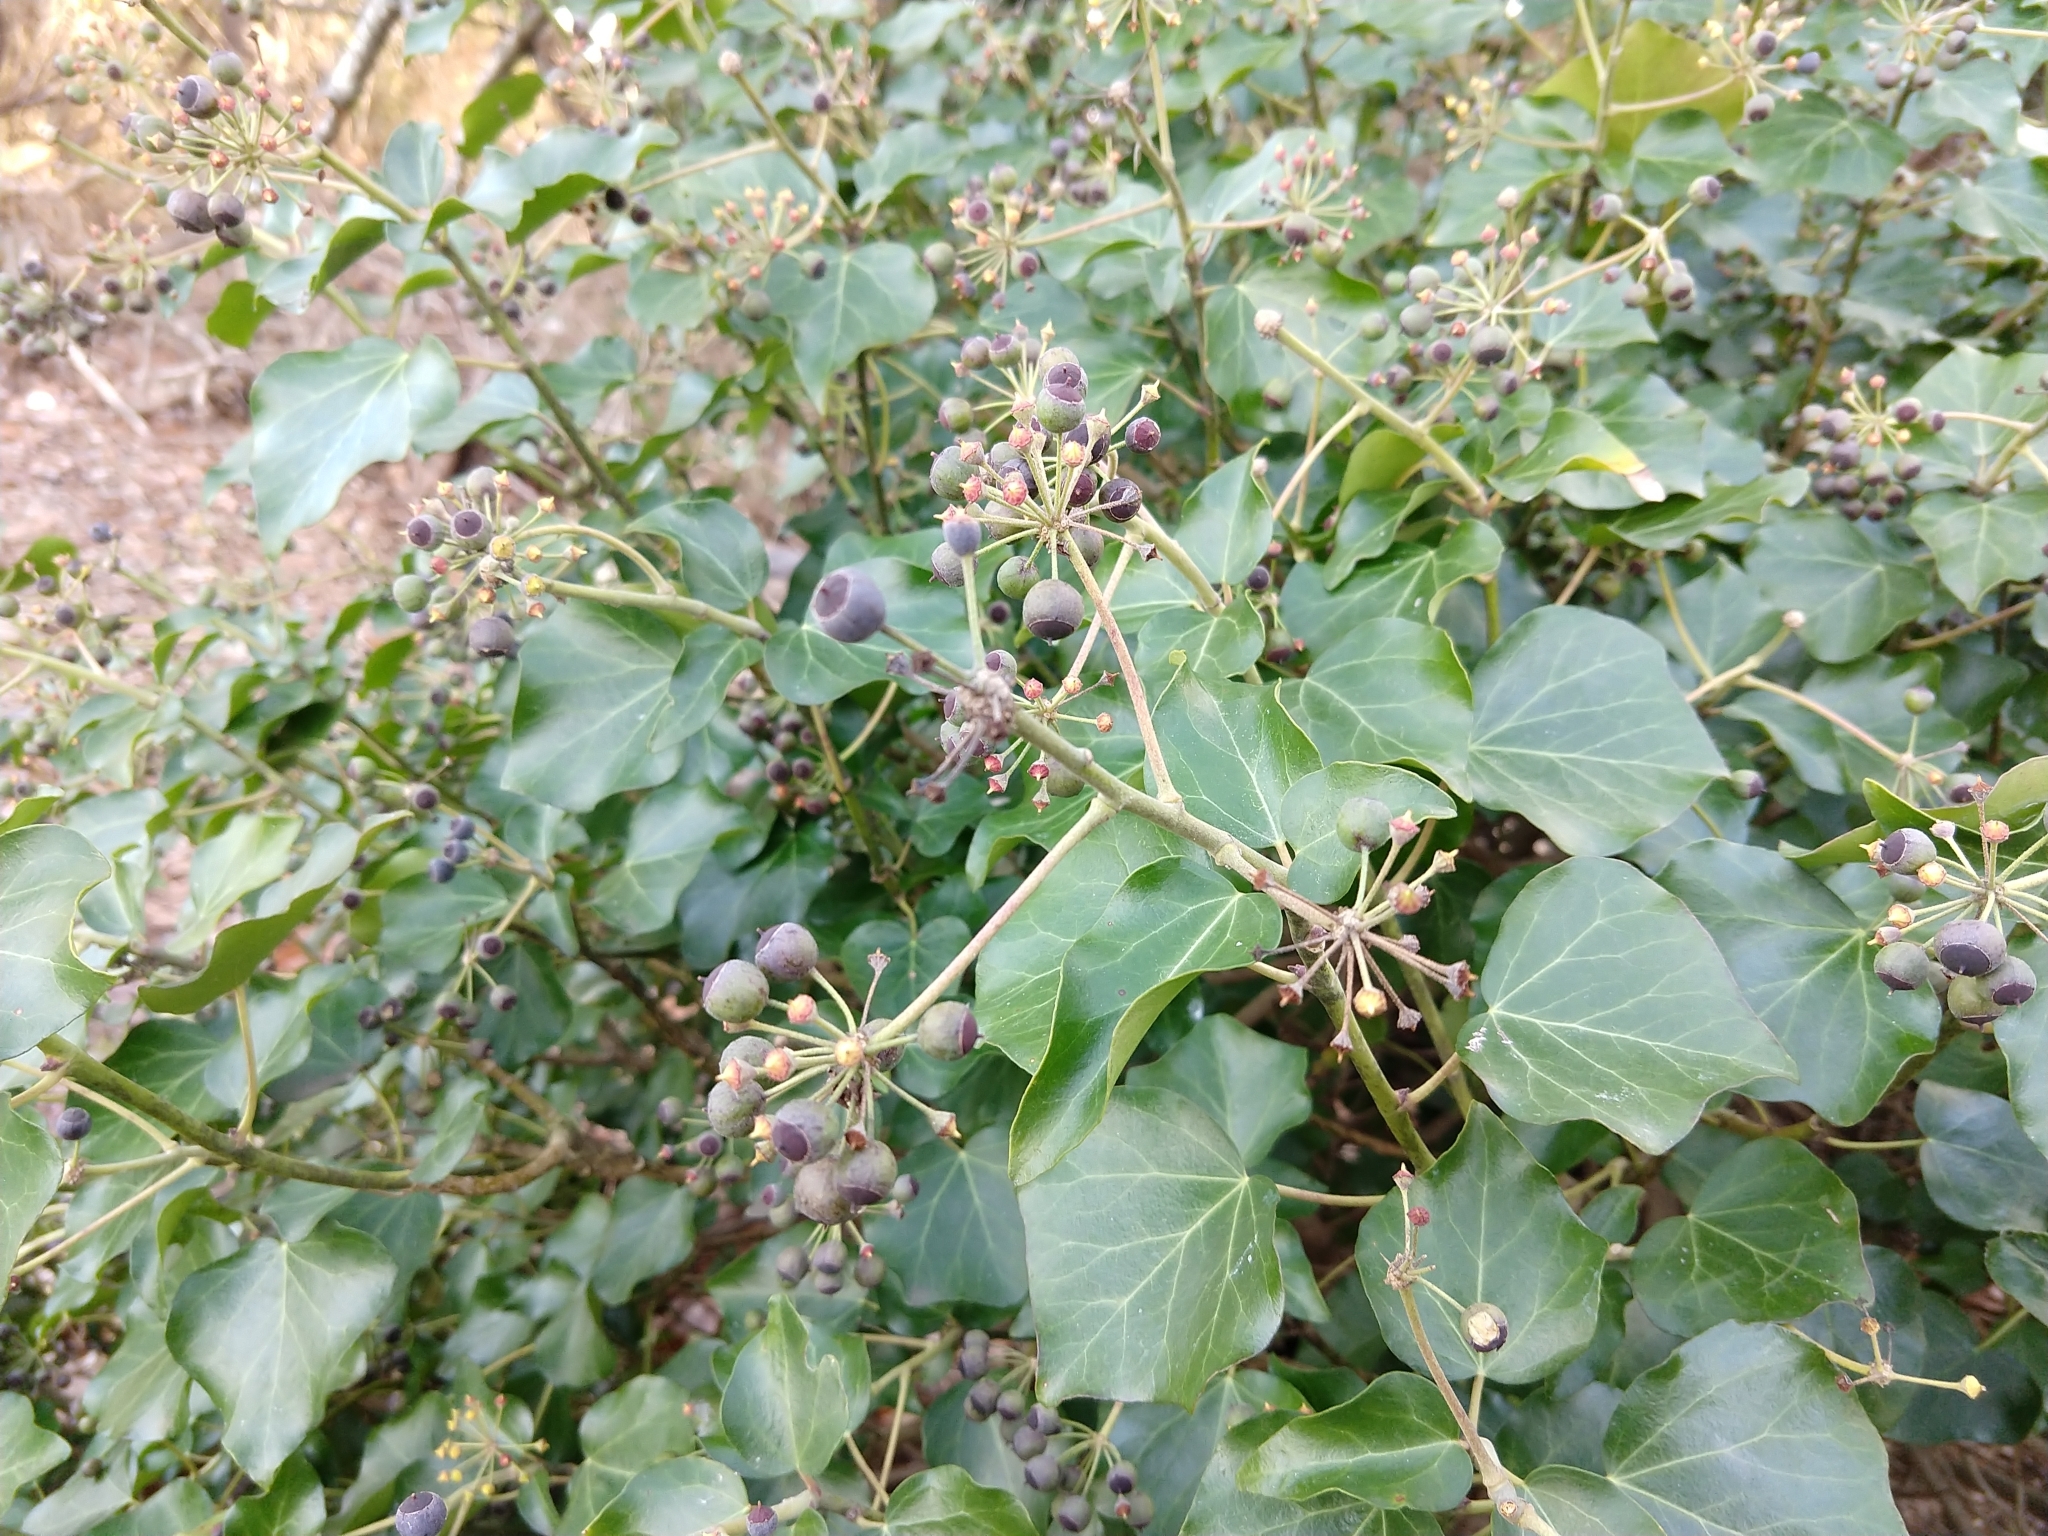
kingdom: Plantae
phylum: Tracheophyta
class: Magnoliopsida
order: Apiales
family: Araliaceae
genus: Hedera
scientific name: Hedera helix
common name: Ivy
